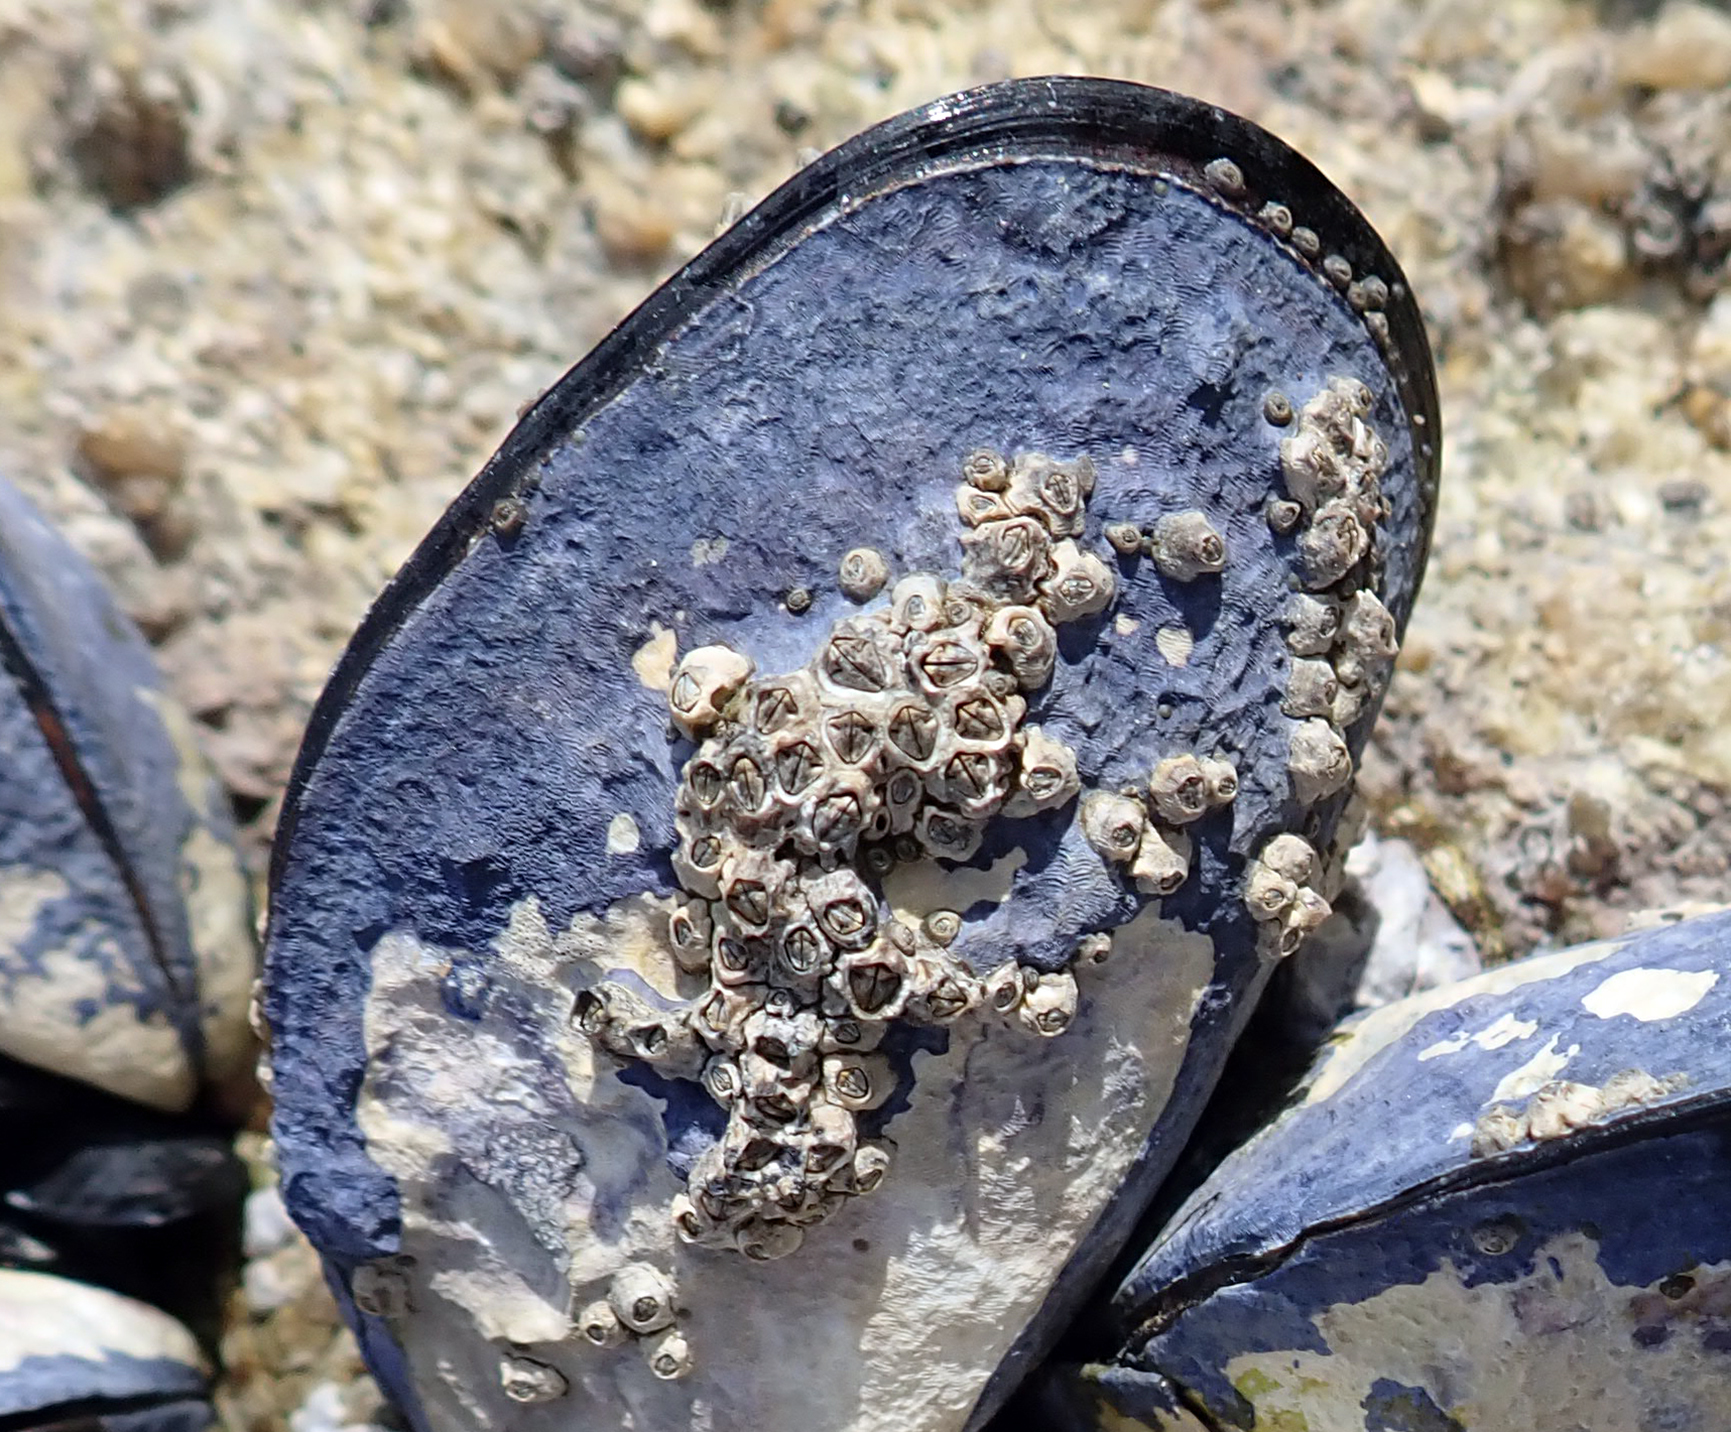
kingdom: Animalia
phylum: Arthropoda
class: Maxillopoda
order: Sessilia
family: Chthamalidae
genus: Chamaesipho
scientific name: Chamaesipho columna
